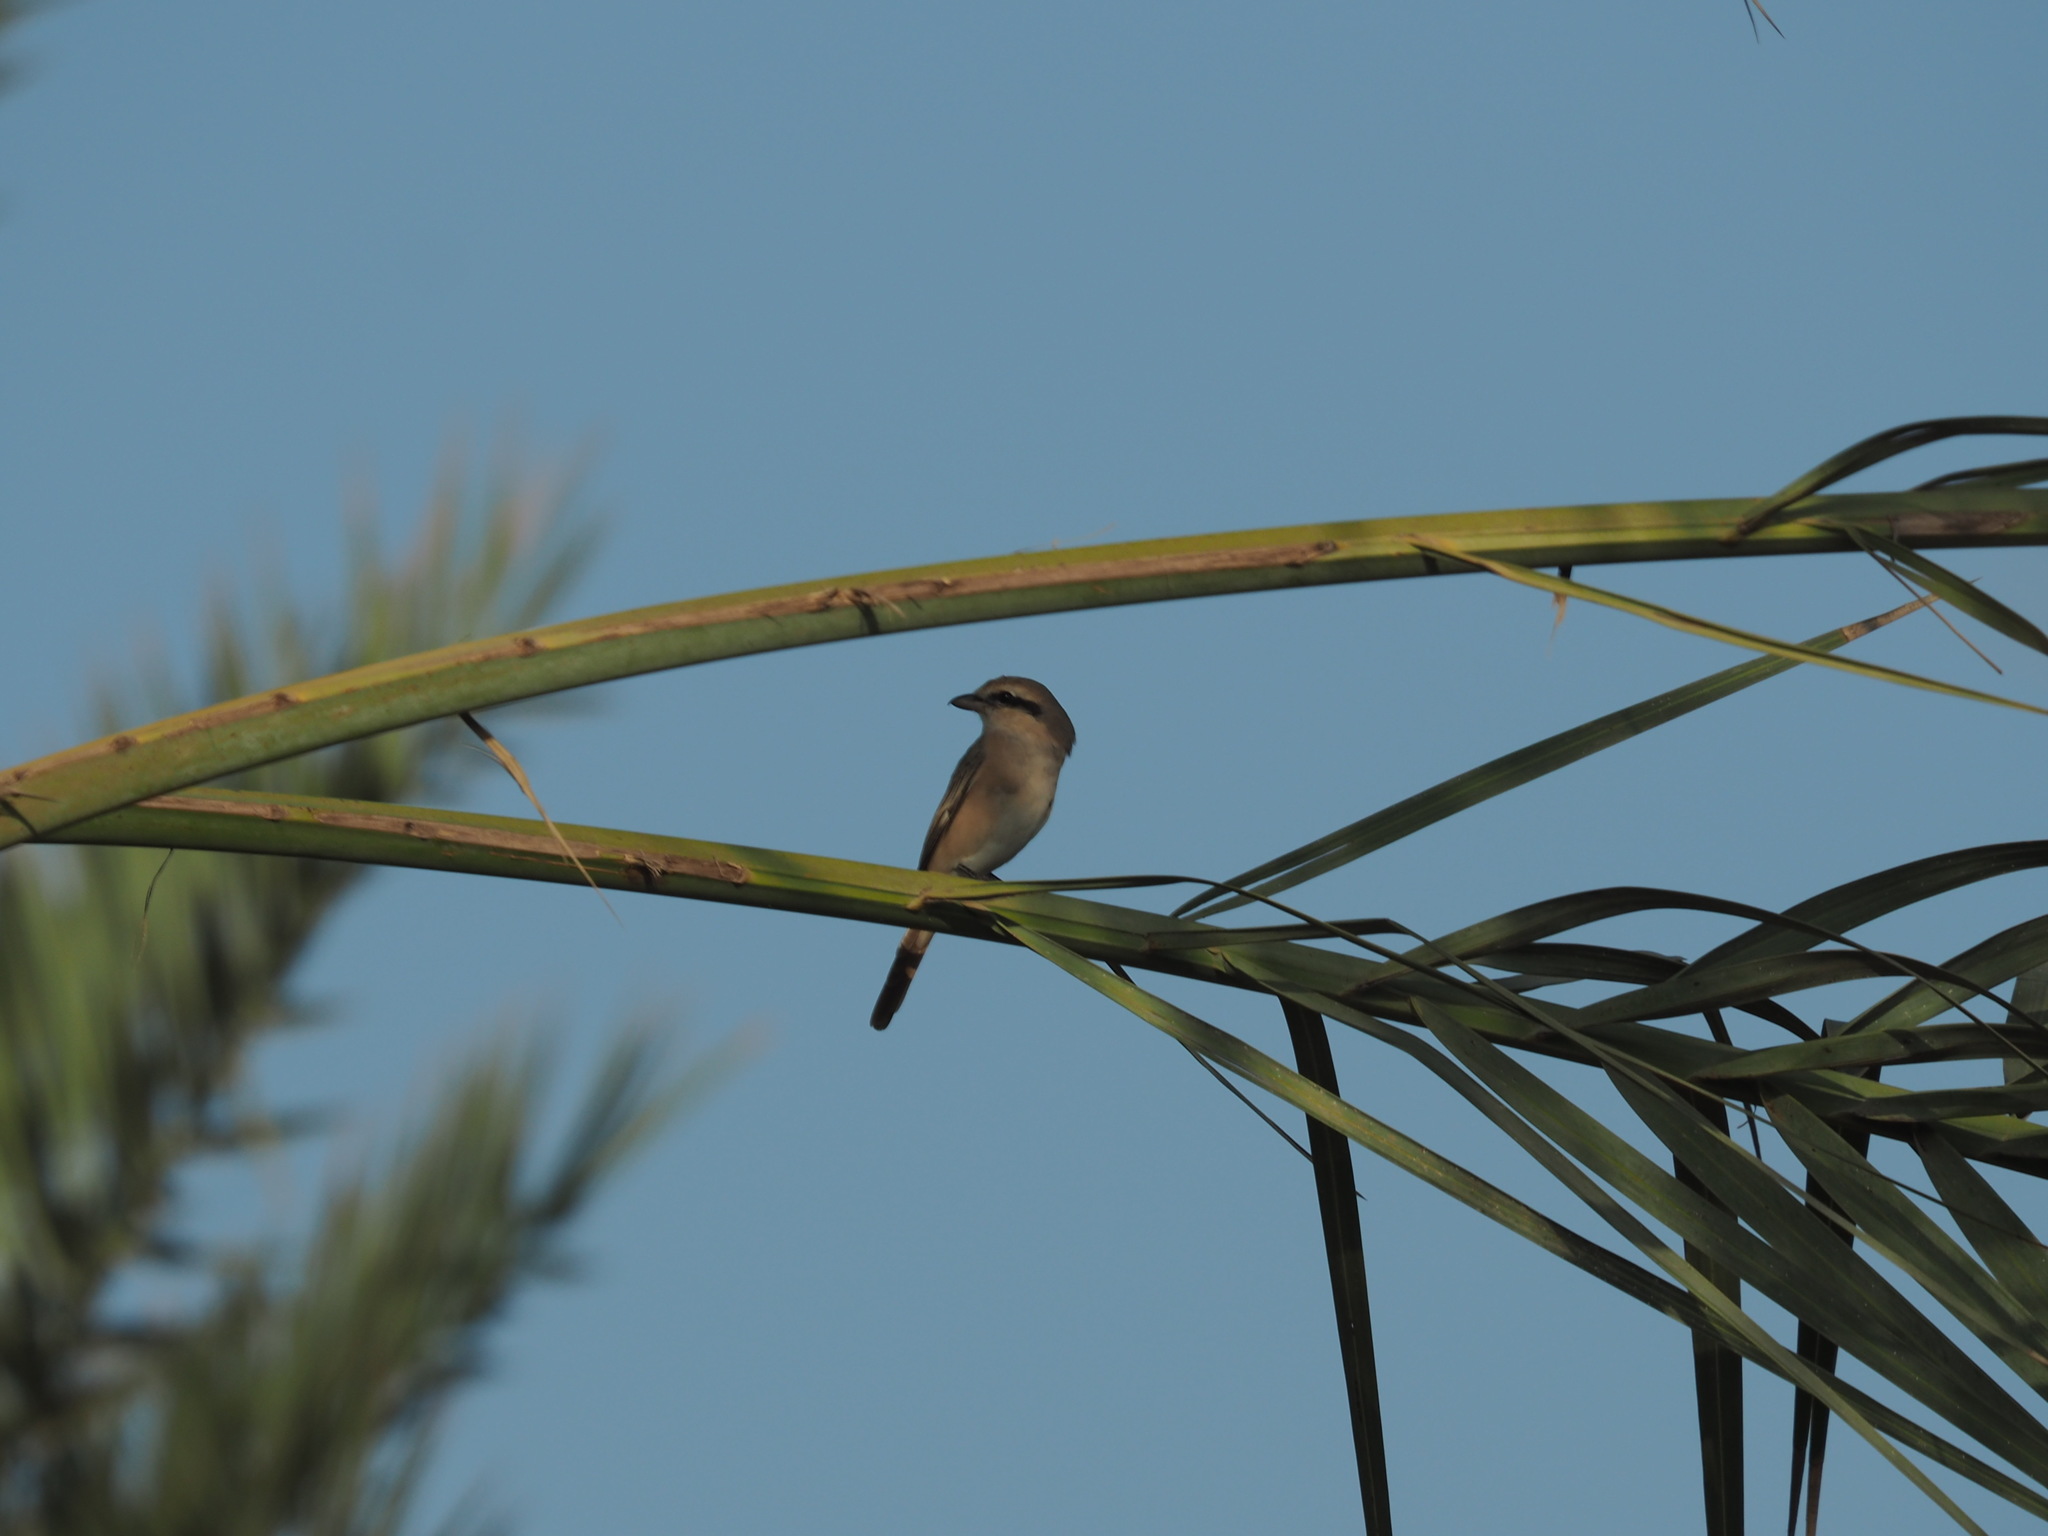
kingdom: Animalia
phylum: Chordata
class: Aves
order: Passeriformes
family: Laniidae
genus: Lanius
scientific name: Lanius isabellinus
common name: Isabelline shrike
